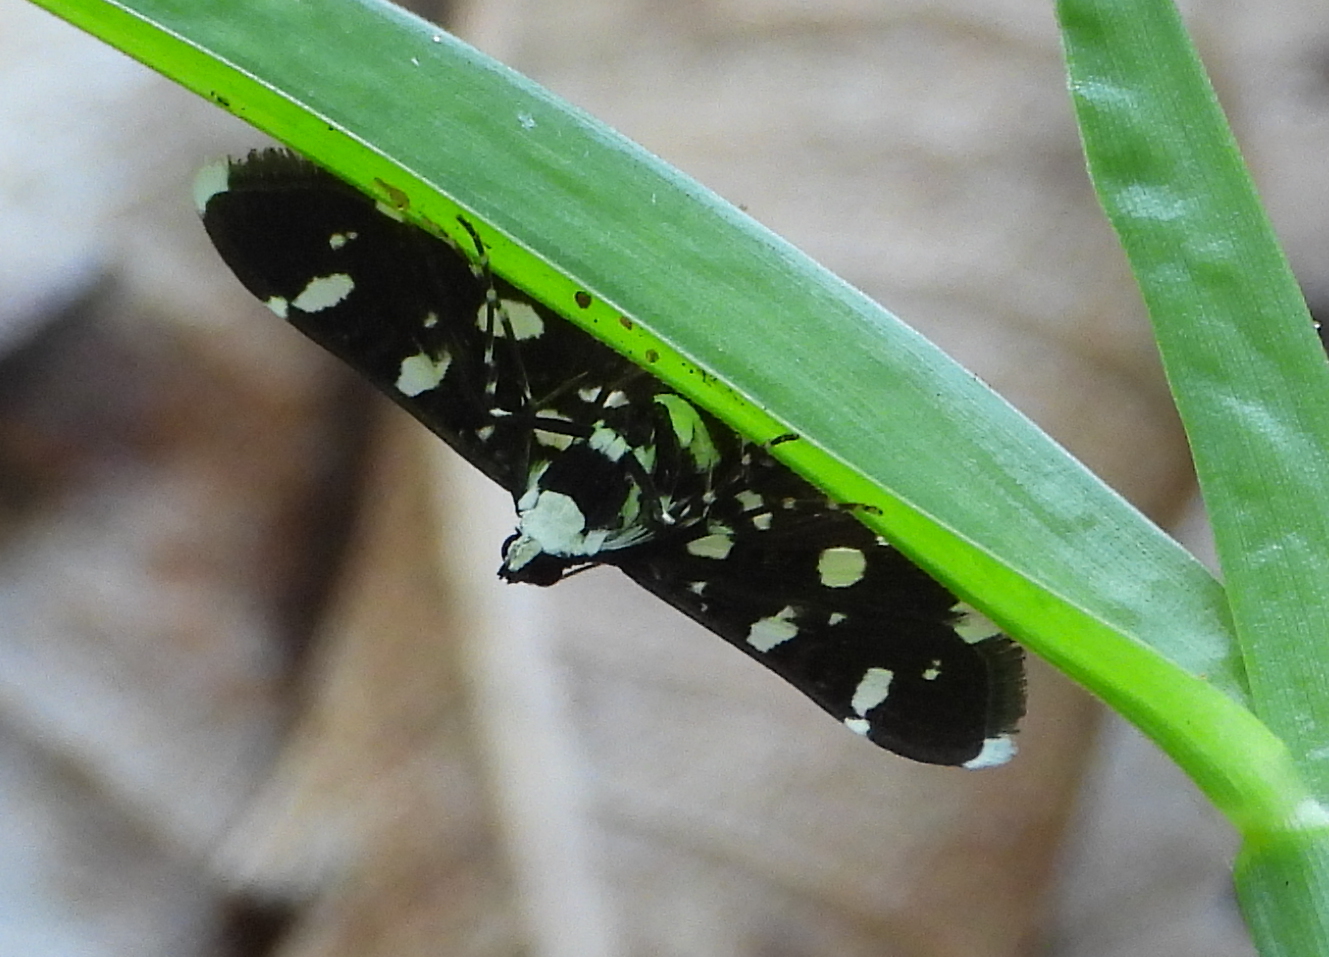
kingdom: Animalia
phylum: Arthropoda
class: Insecta
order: Lepidoptera
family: Crambidae
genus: Bocchoris
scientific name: Bocchoris inspersalis
